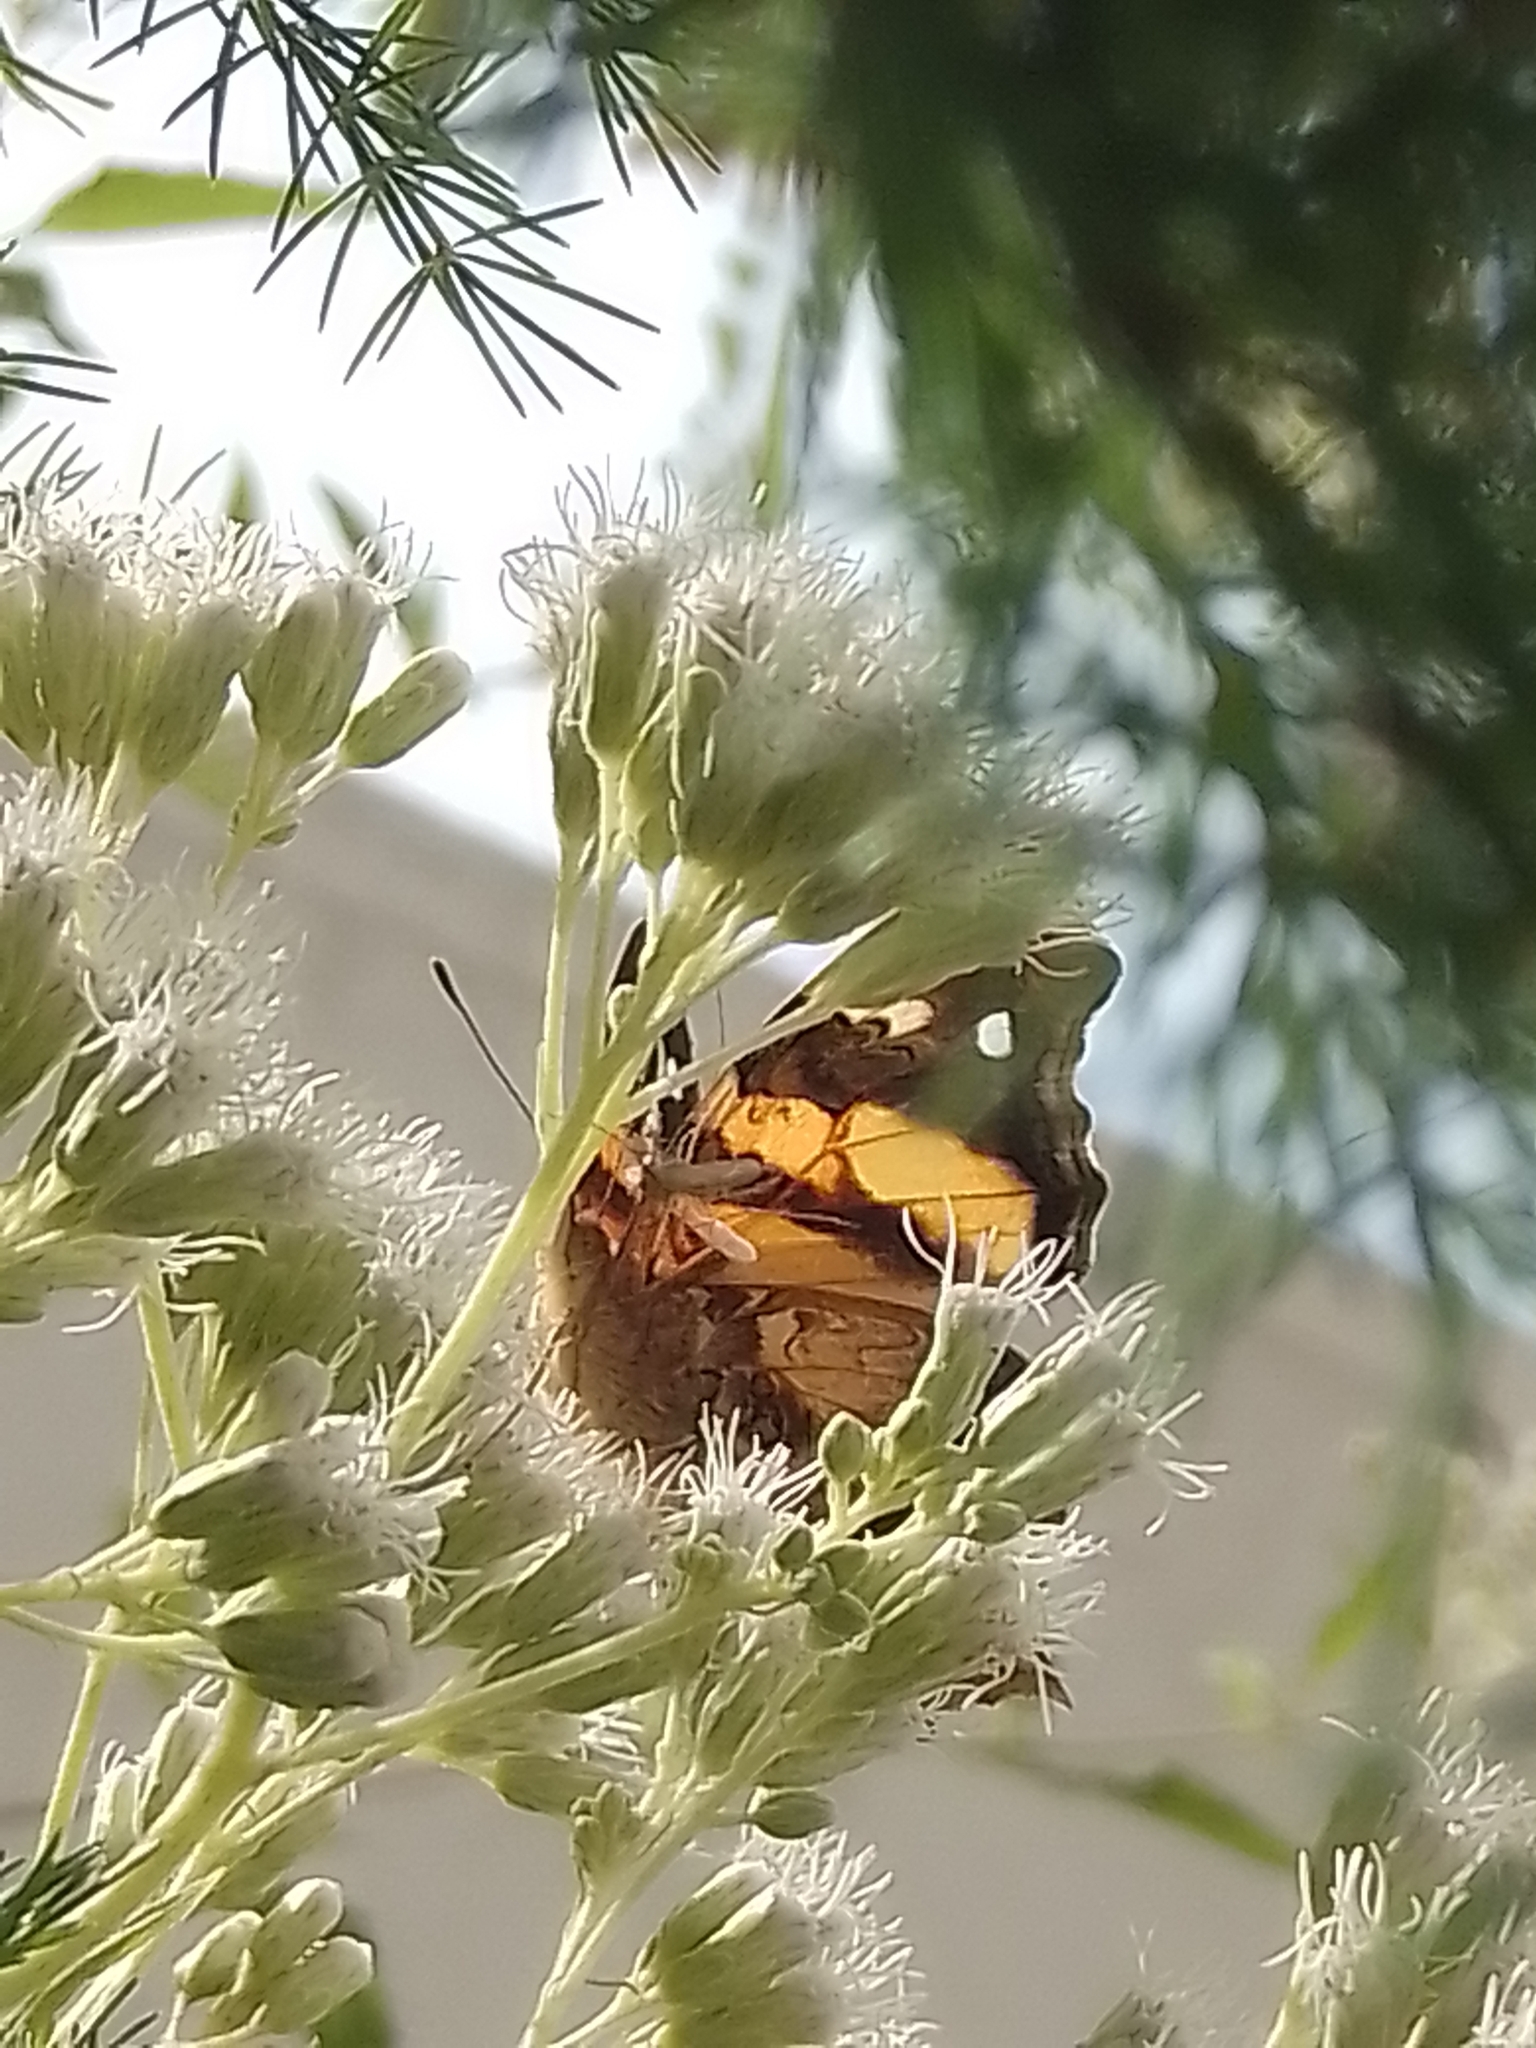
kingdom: Animalia
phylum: Arthropoda
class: Insecta
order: Lepidoptera
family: Nymphalidae
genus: Hypanartia
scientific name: Hypanartia bella
